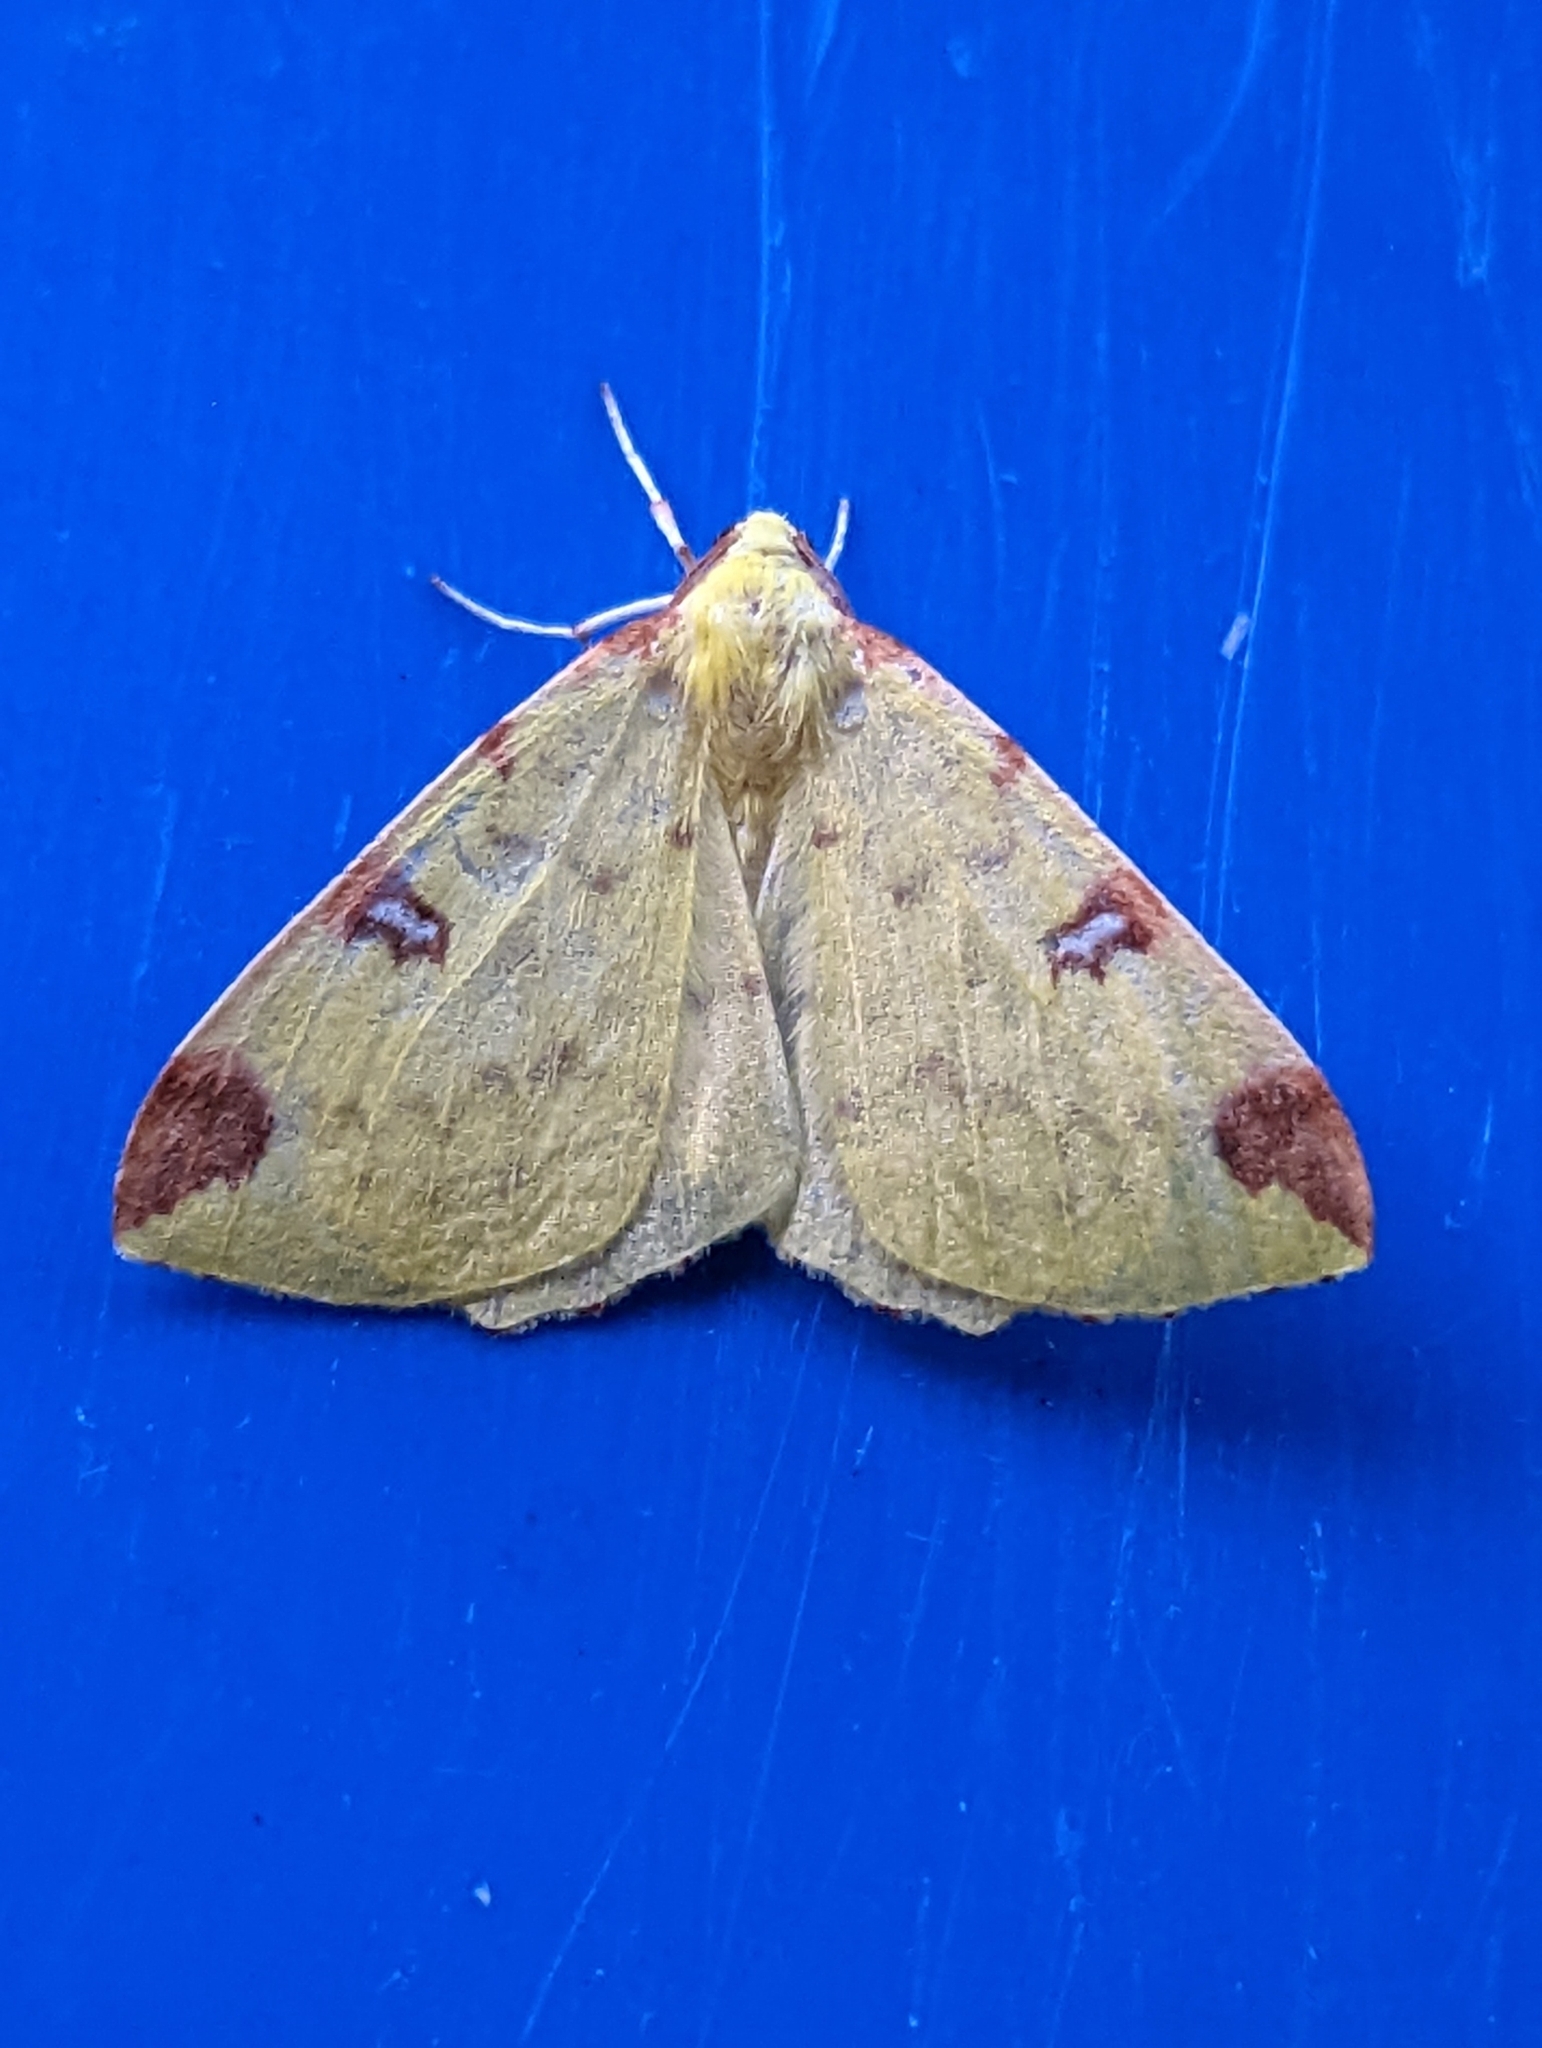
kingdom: Animalia
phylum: Arthropoda
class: Insecta
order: Lepidoptera
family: Geometridae
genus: Opisthograptis
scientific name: Opisthograptis luteolata
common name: Brimstone moth
